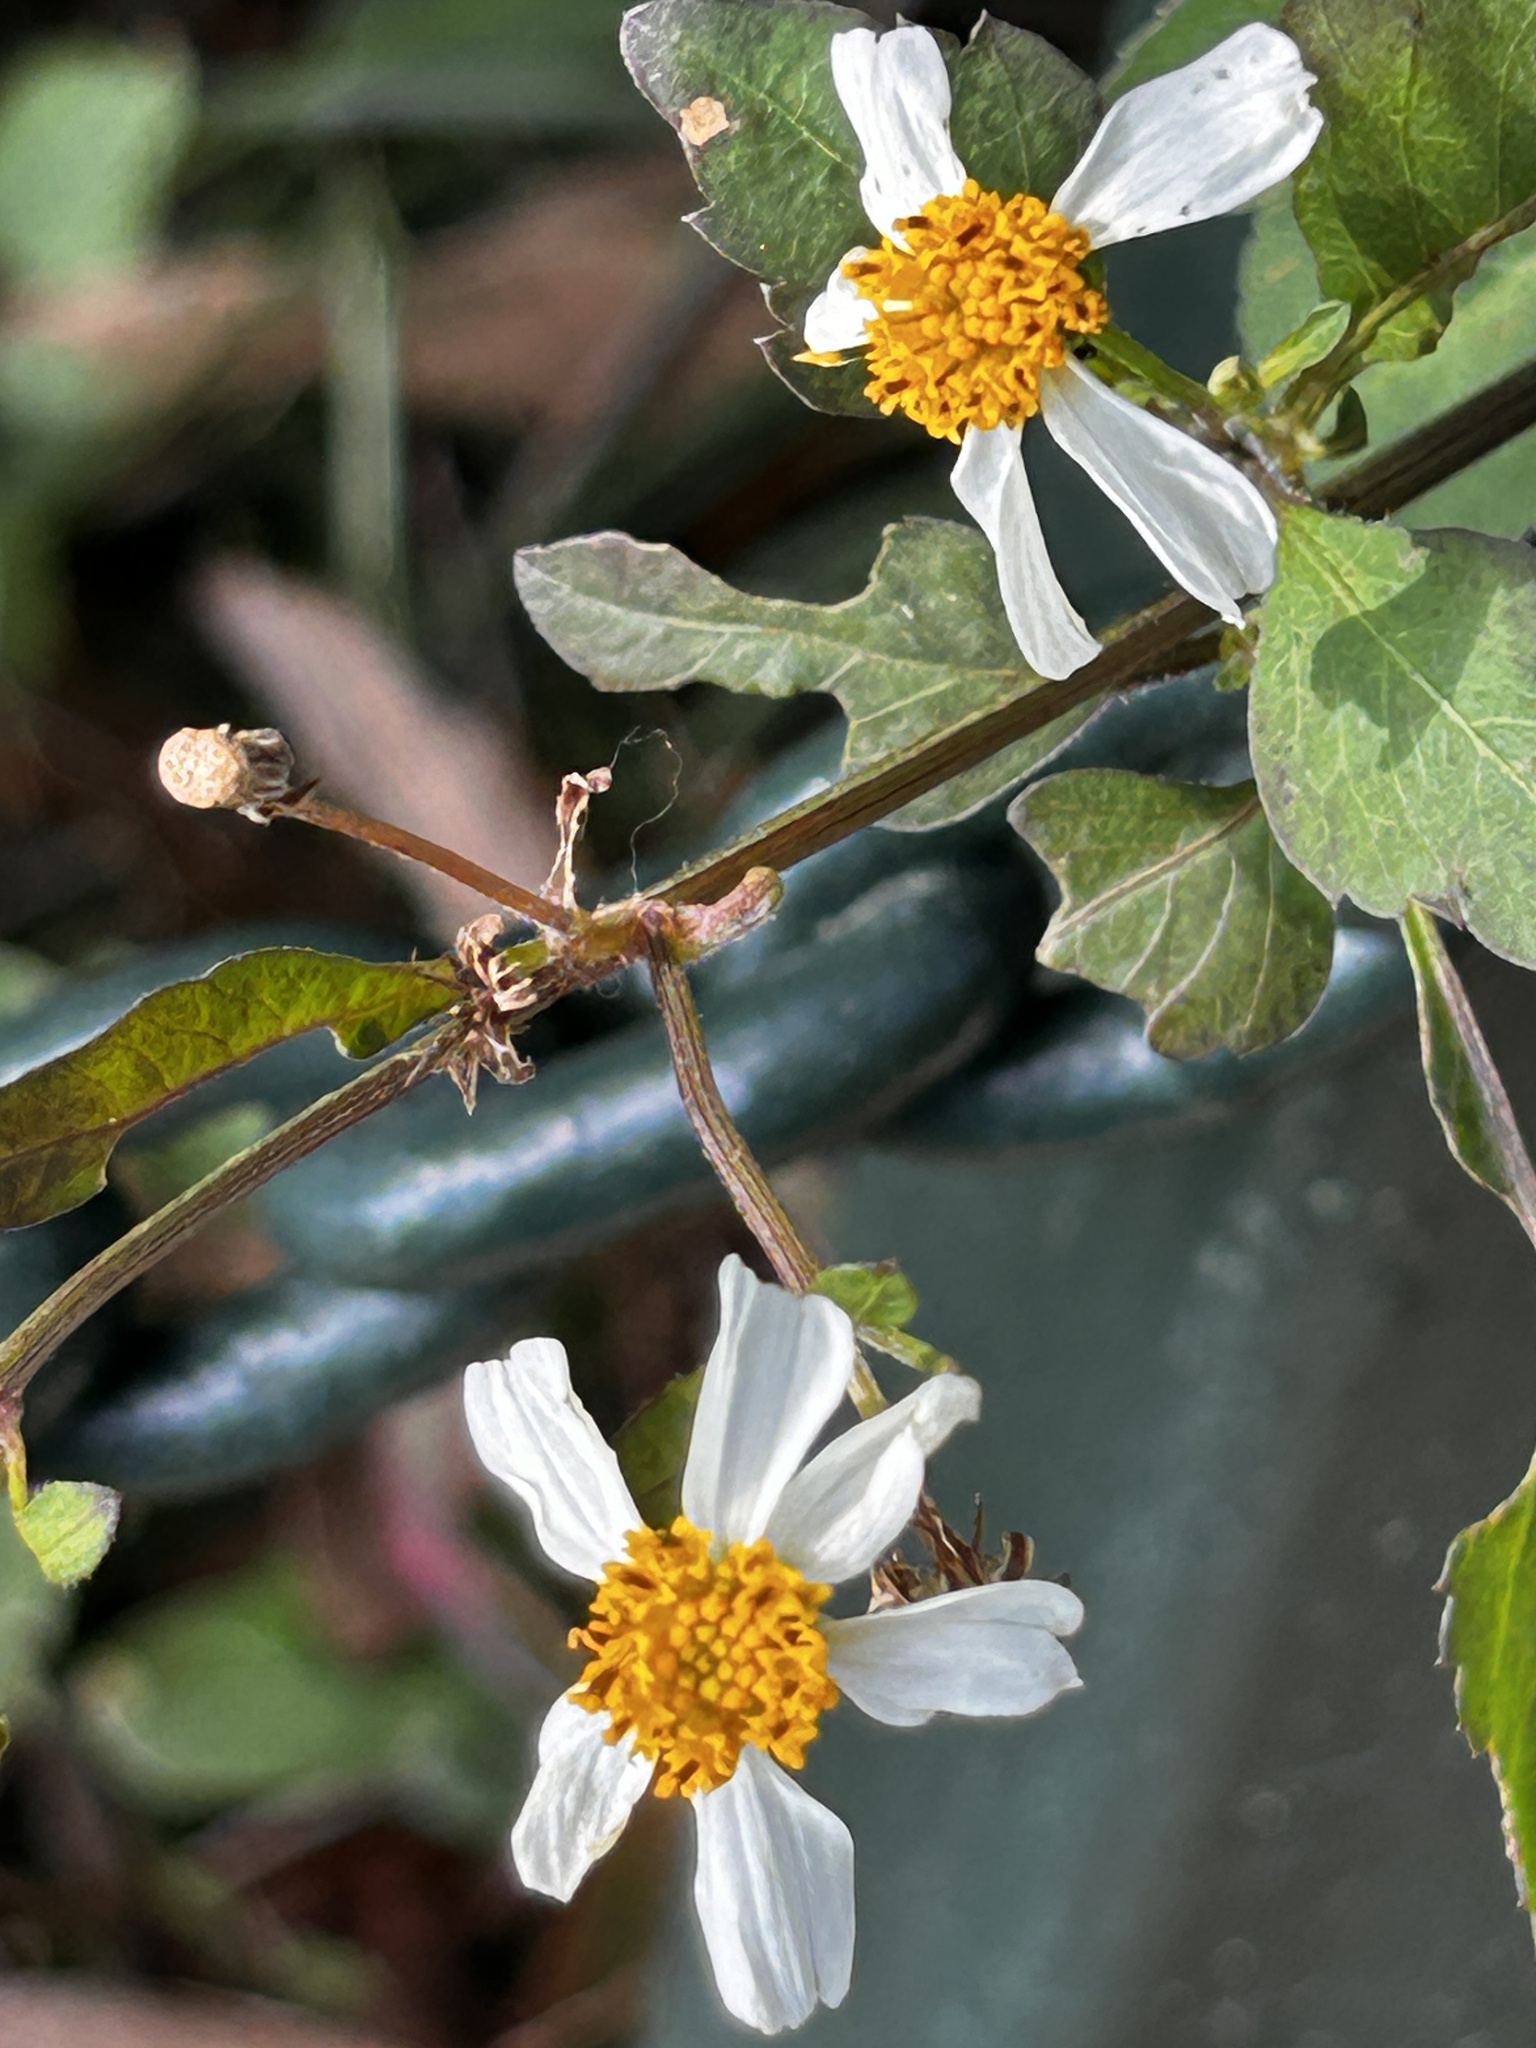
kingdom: Plantae
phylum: Tracheophyta
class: Magnoliopsida
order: Asterales
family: Asteraceae
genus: Bidens
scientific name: Bidens alba
